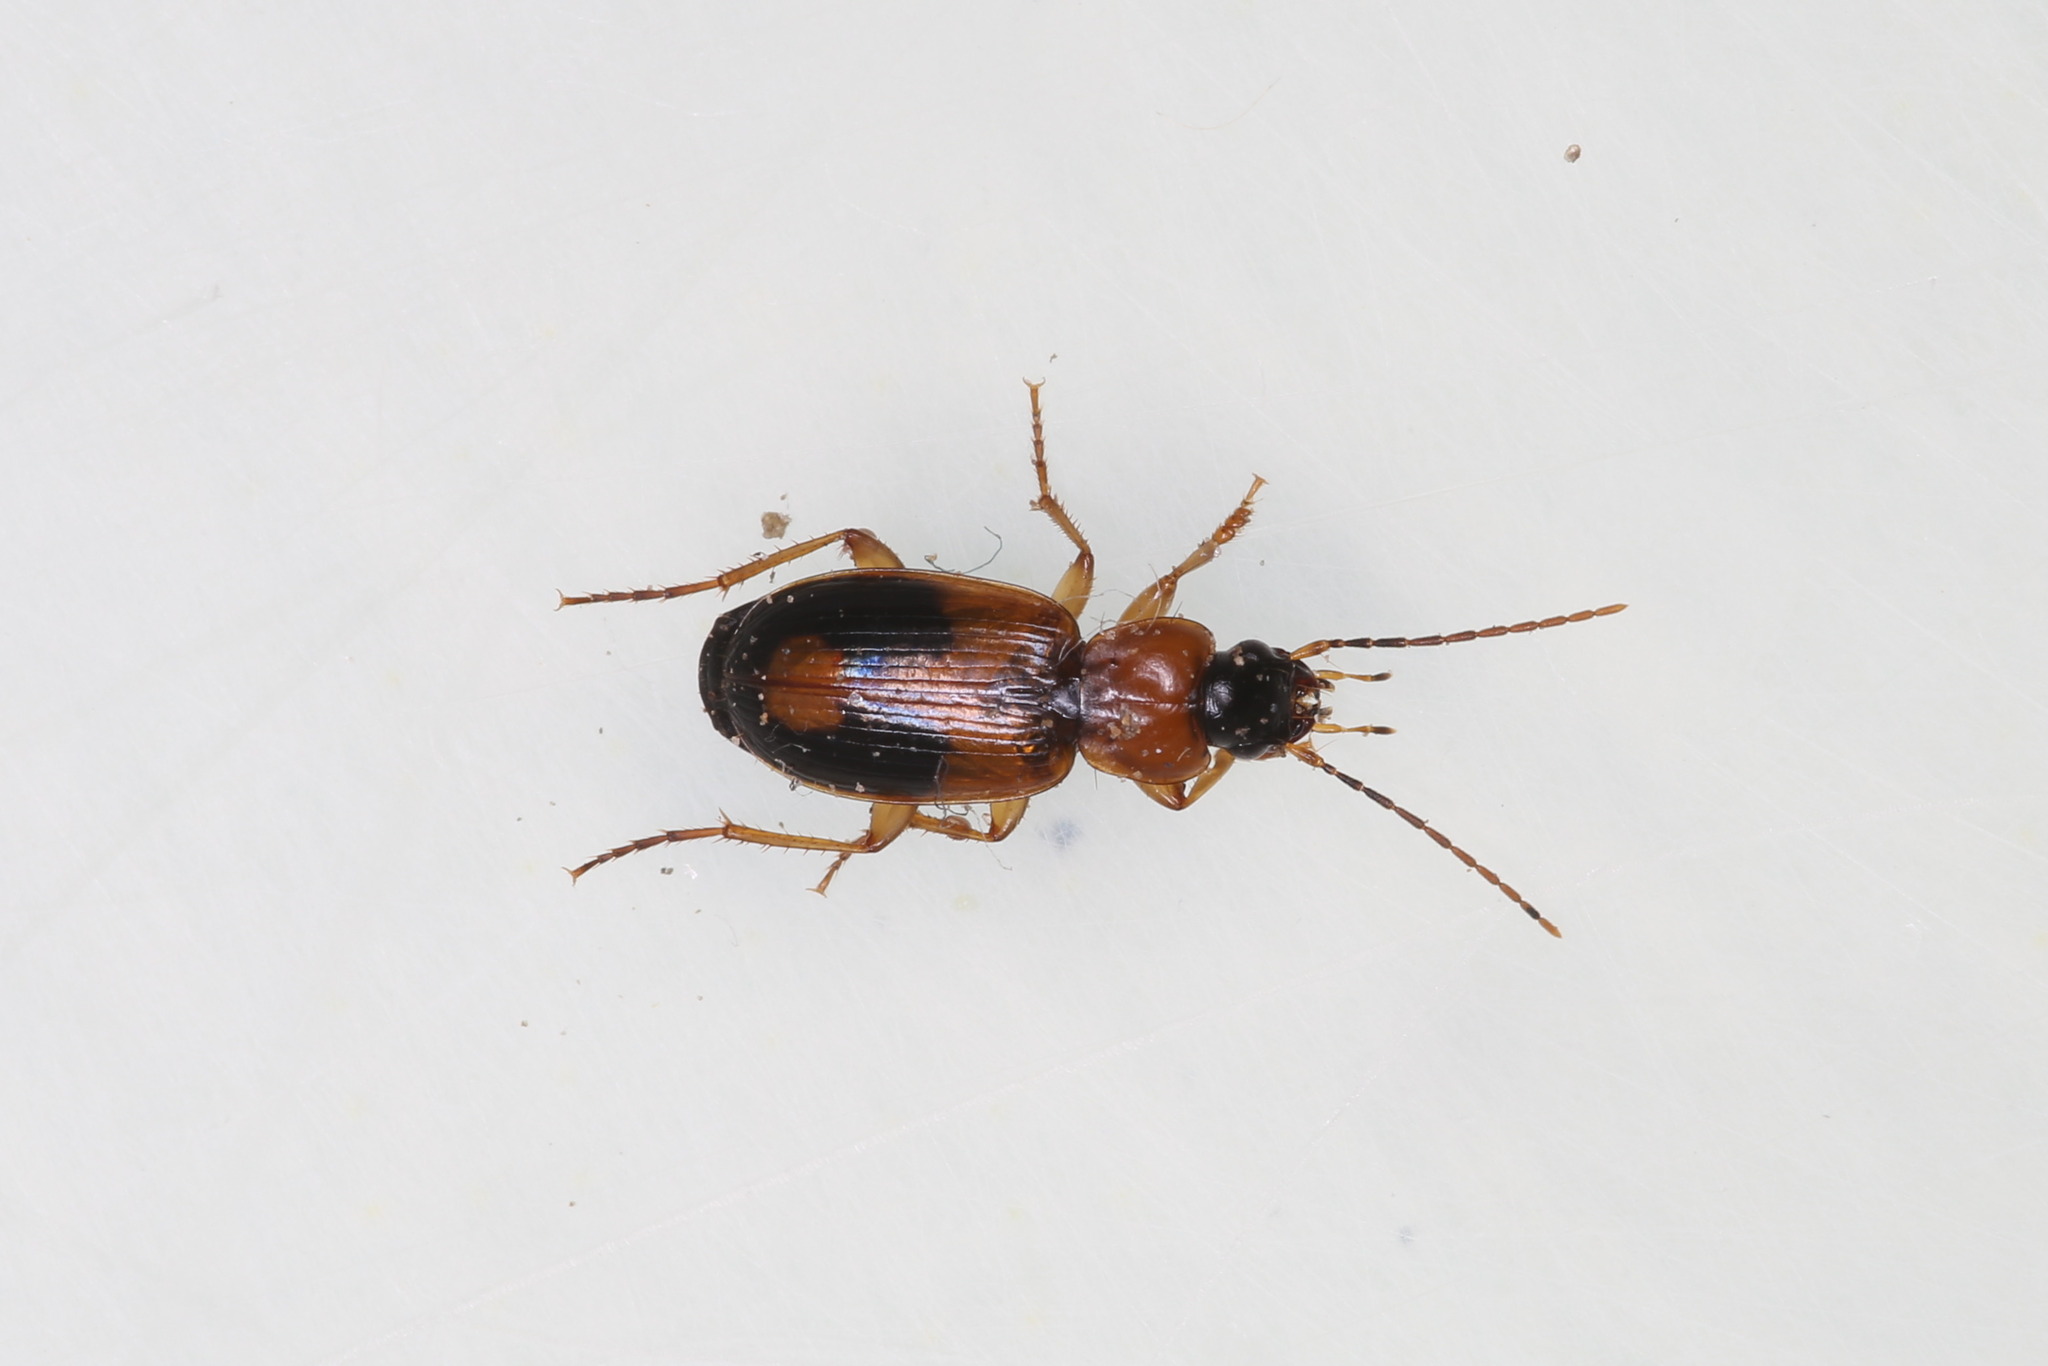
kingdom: Animalia
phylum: Arthropoda
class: Insecta
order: Coleoptera
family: Carabidae
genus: Badister
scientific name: Badister bullatus
